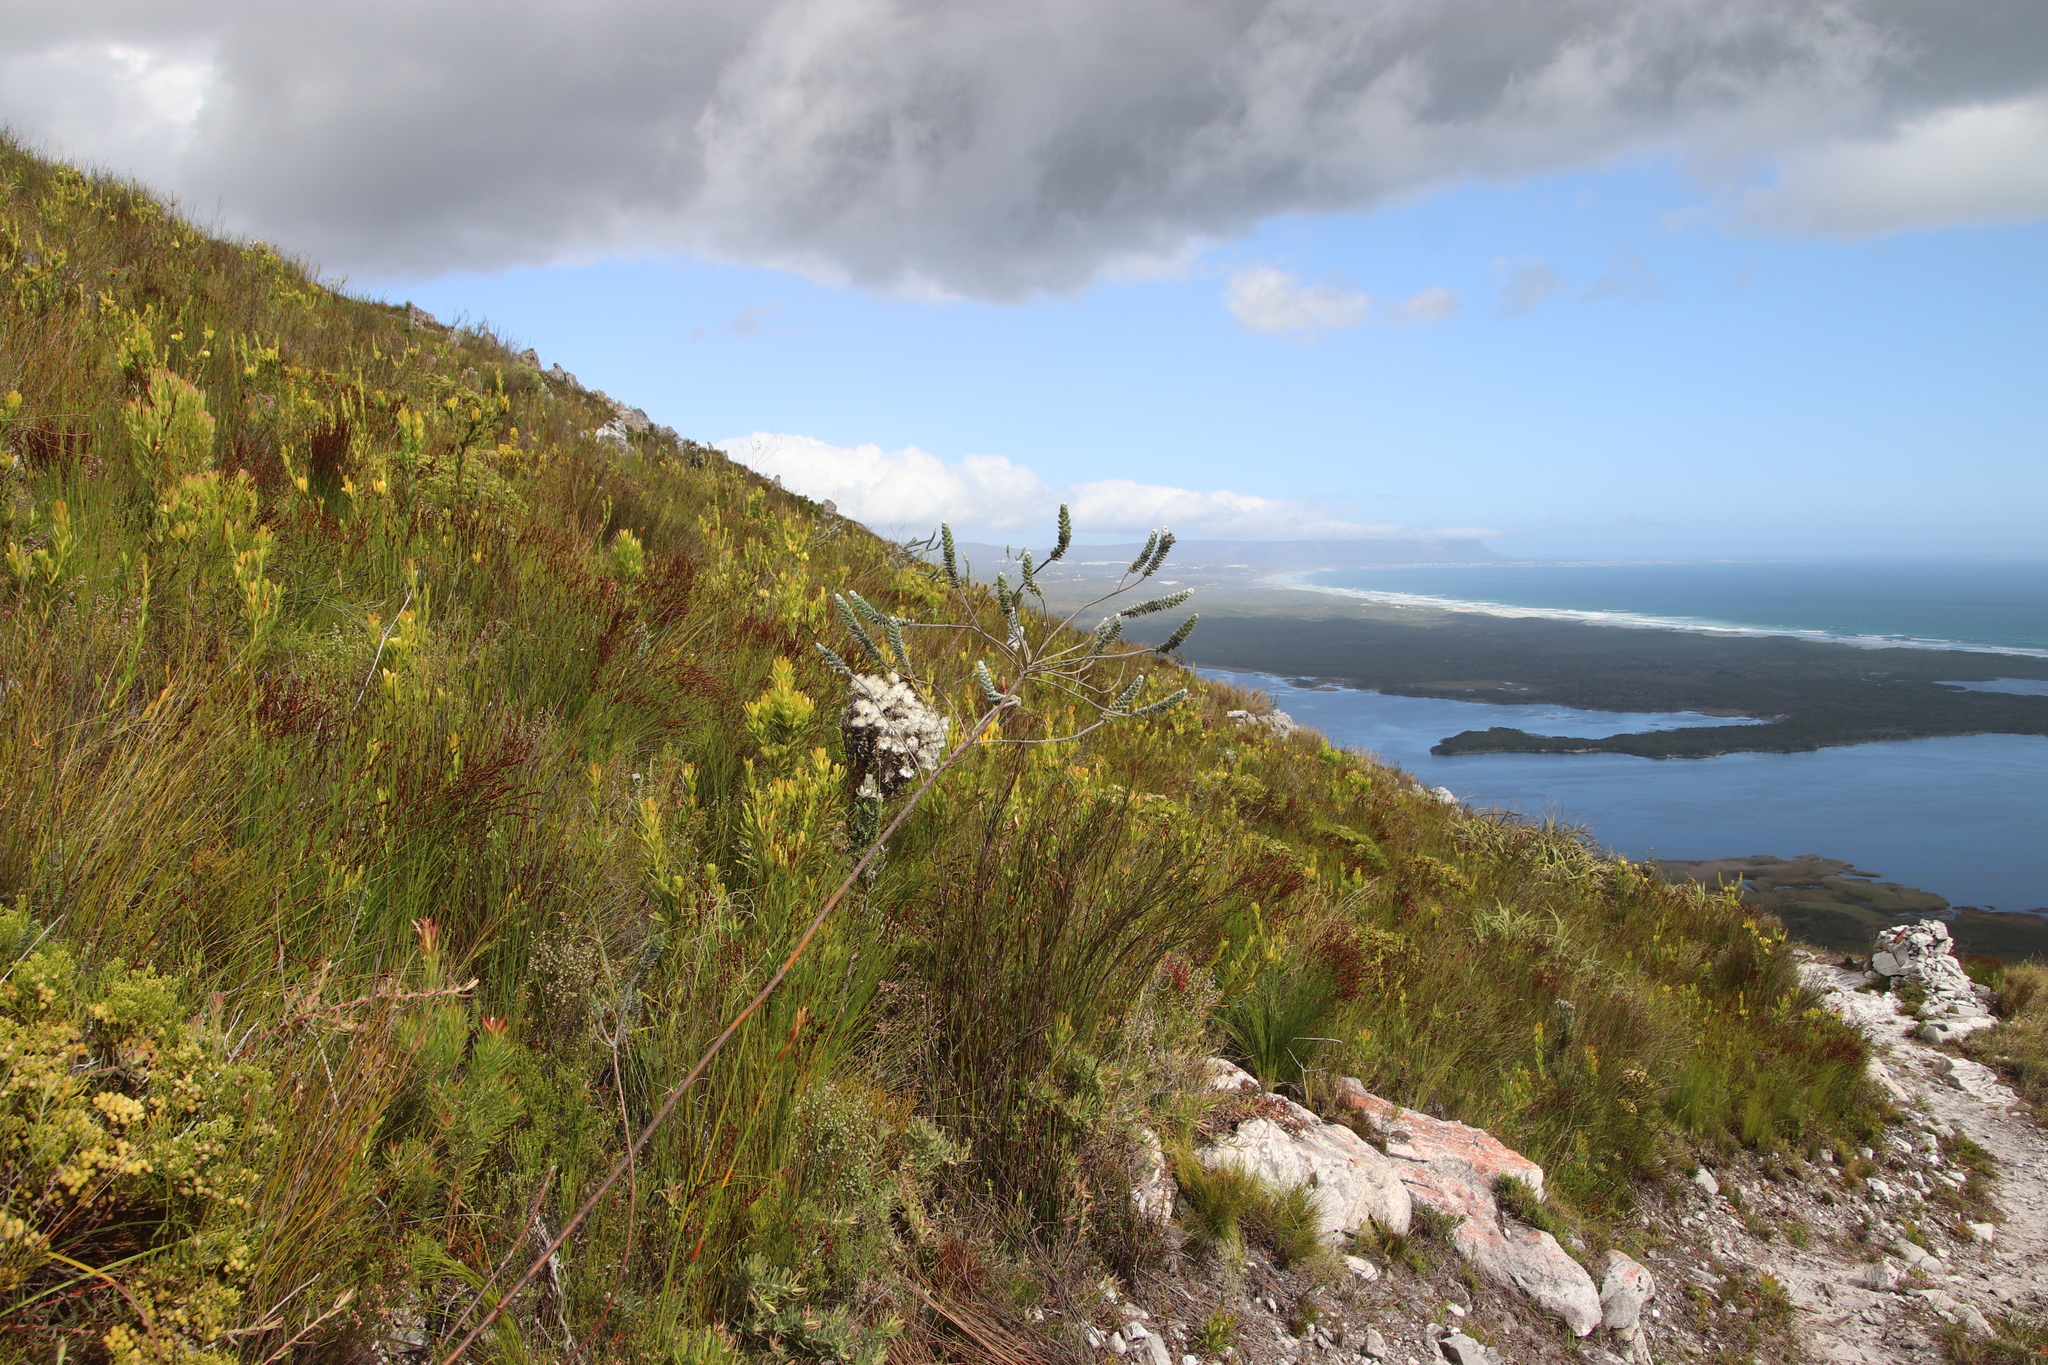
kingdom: Plantae
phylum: Tracheophyta
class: Magnoliopsida
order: Fabales
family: Fabaceae
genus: Liparia
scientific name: Liparia vestita
